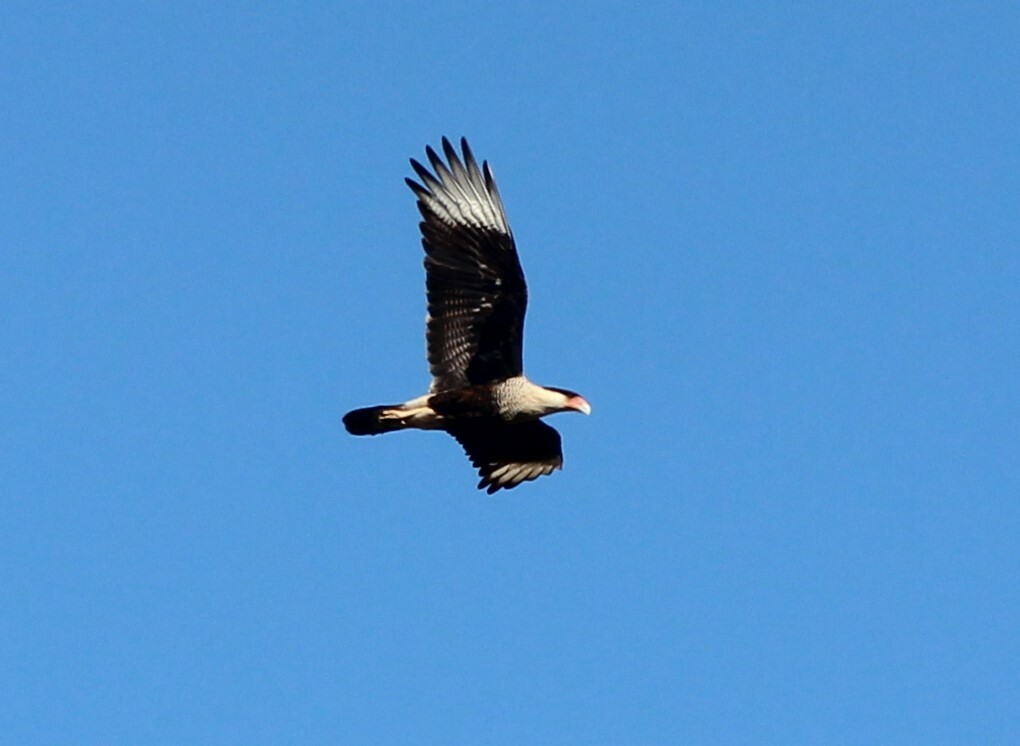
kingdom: Animalia
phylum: Chordata
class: Aves
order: Falconiformes
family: Falconidae
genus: Caracara
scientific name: Caracara plancus
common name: Southern caracara
